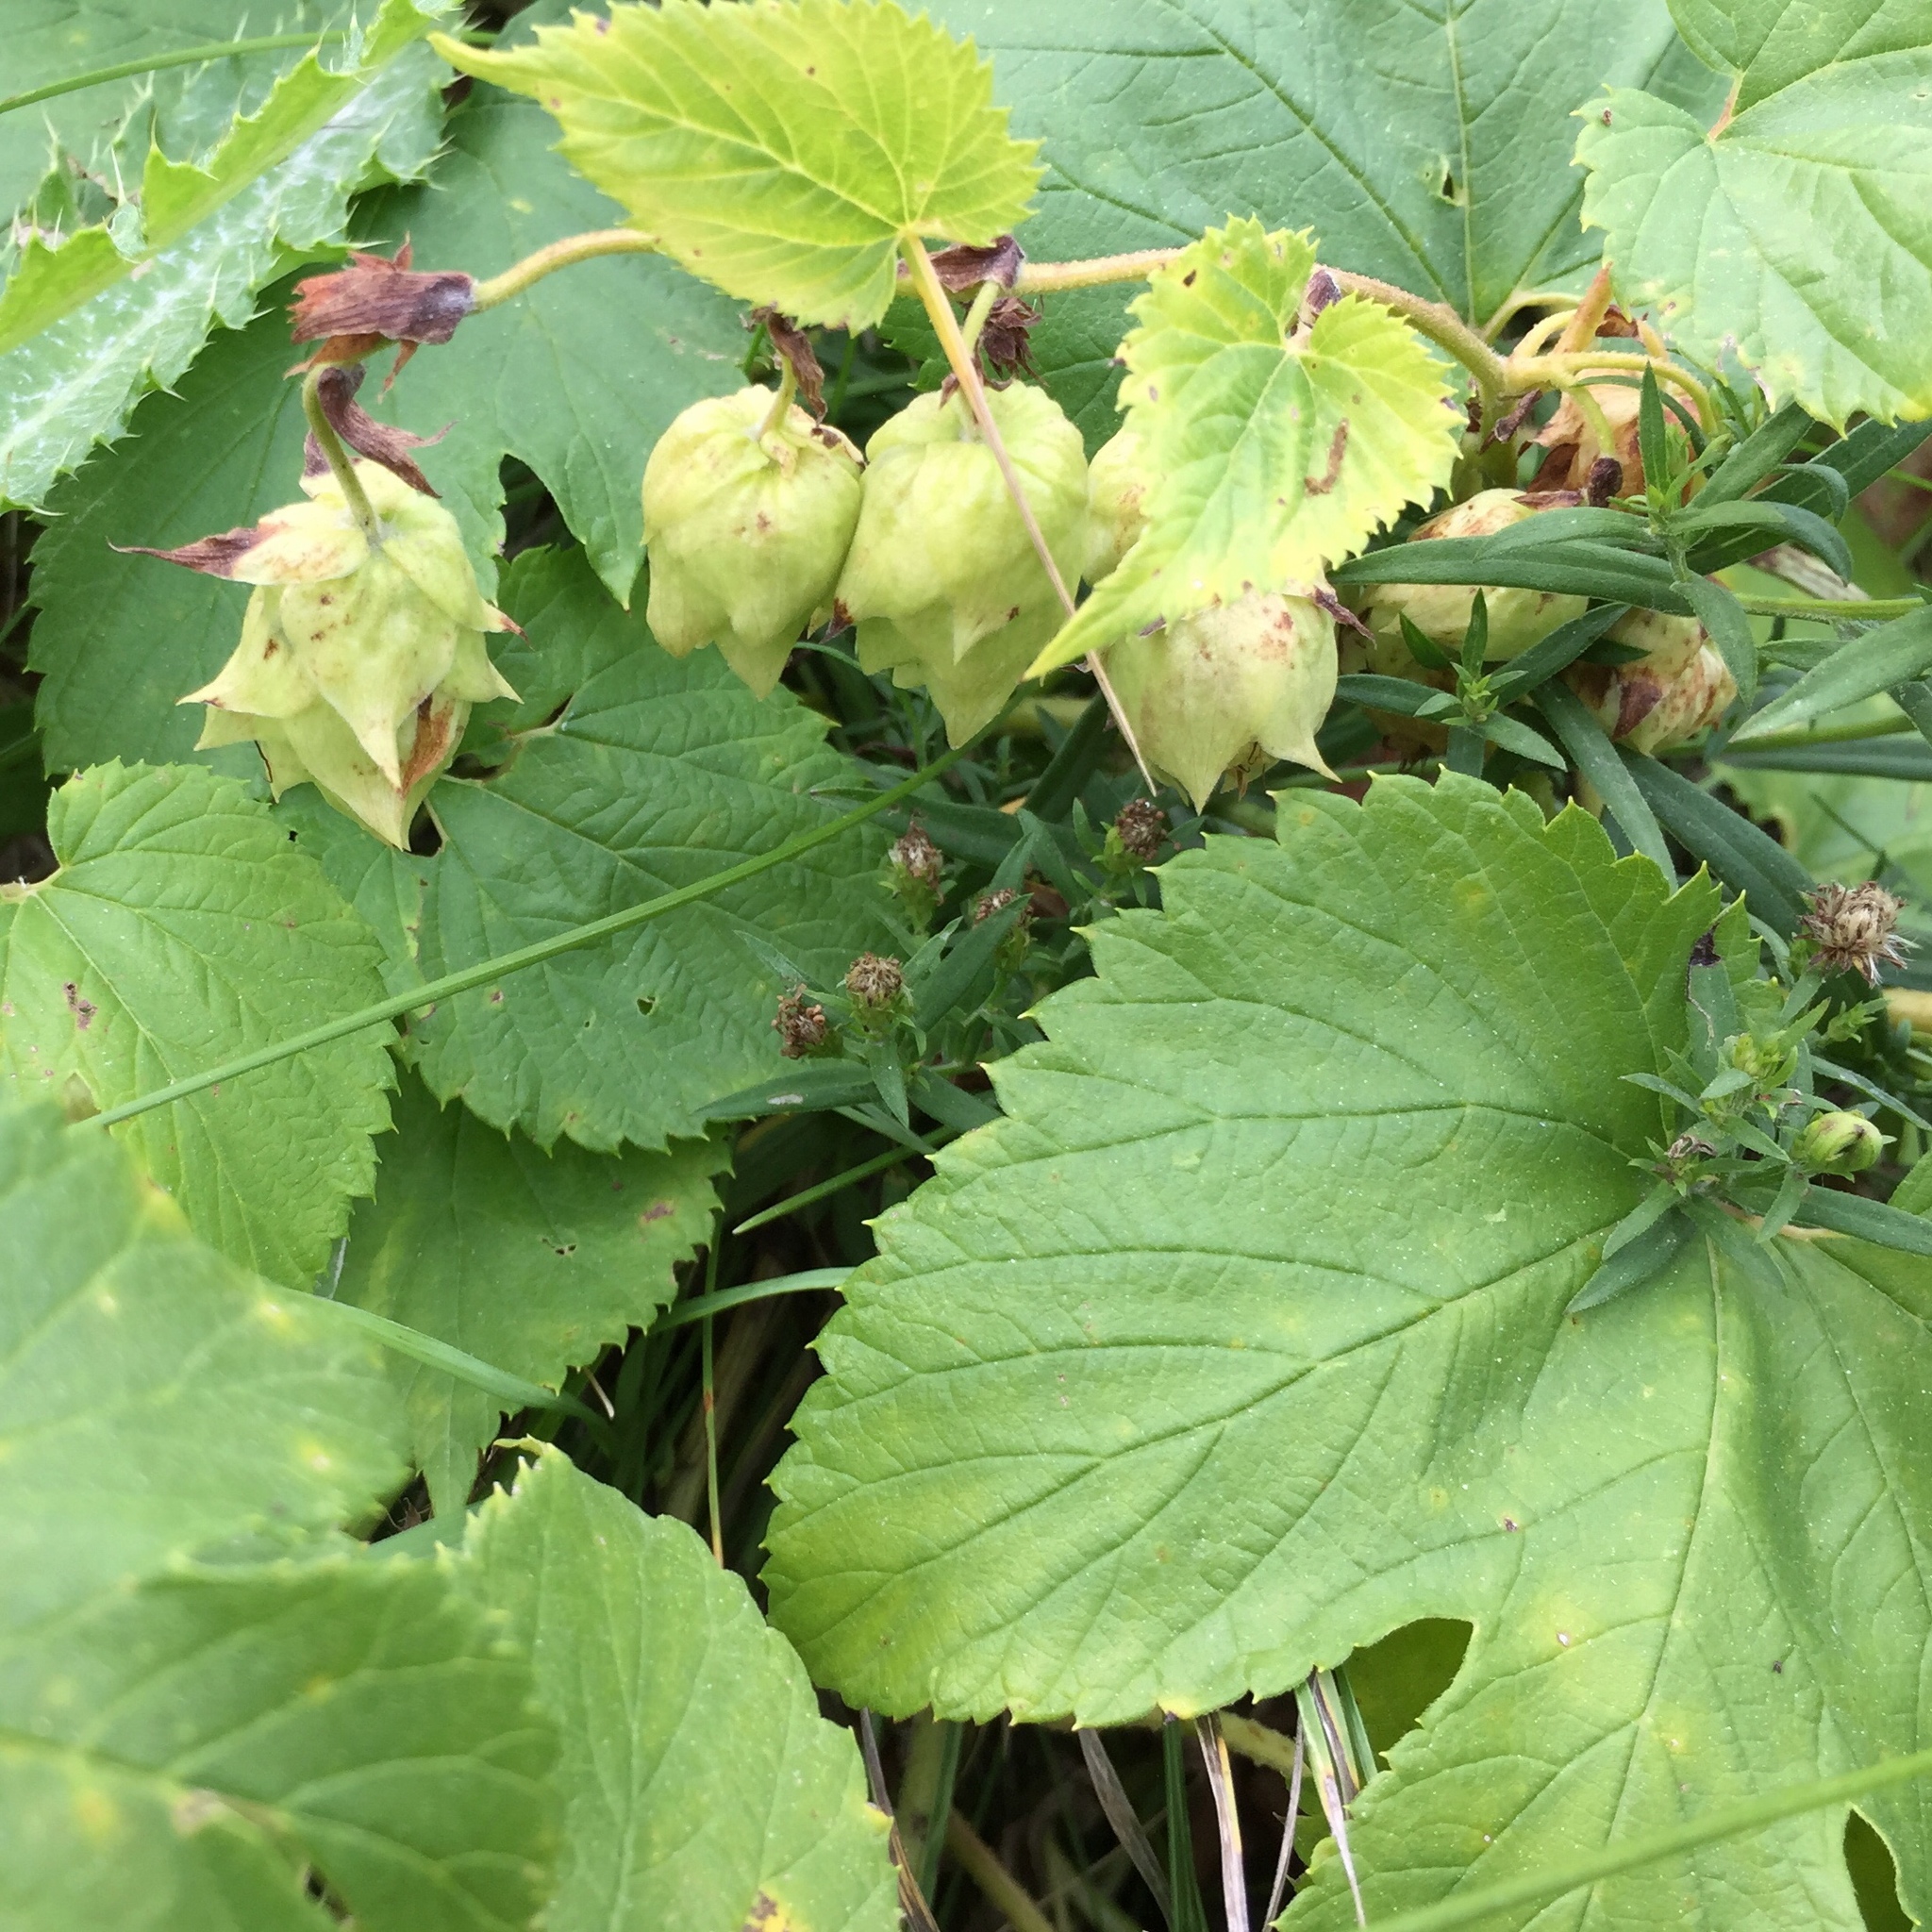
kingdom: Plantae
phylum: Tracheophyta
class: Magnoliopsida
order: Rosales
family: Cannabaceae
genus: Humulus
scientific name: Humulus lupulus
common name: Hop
